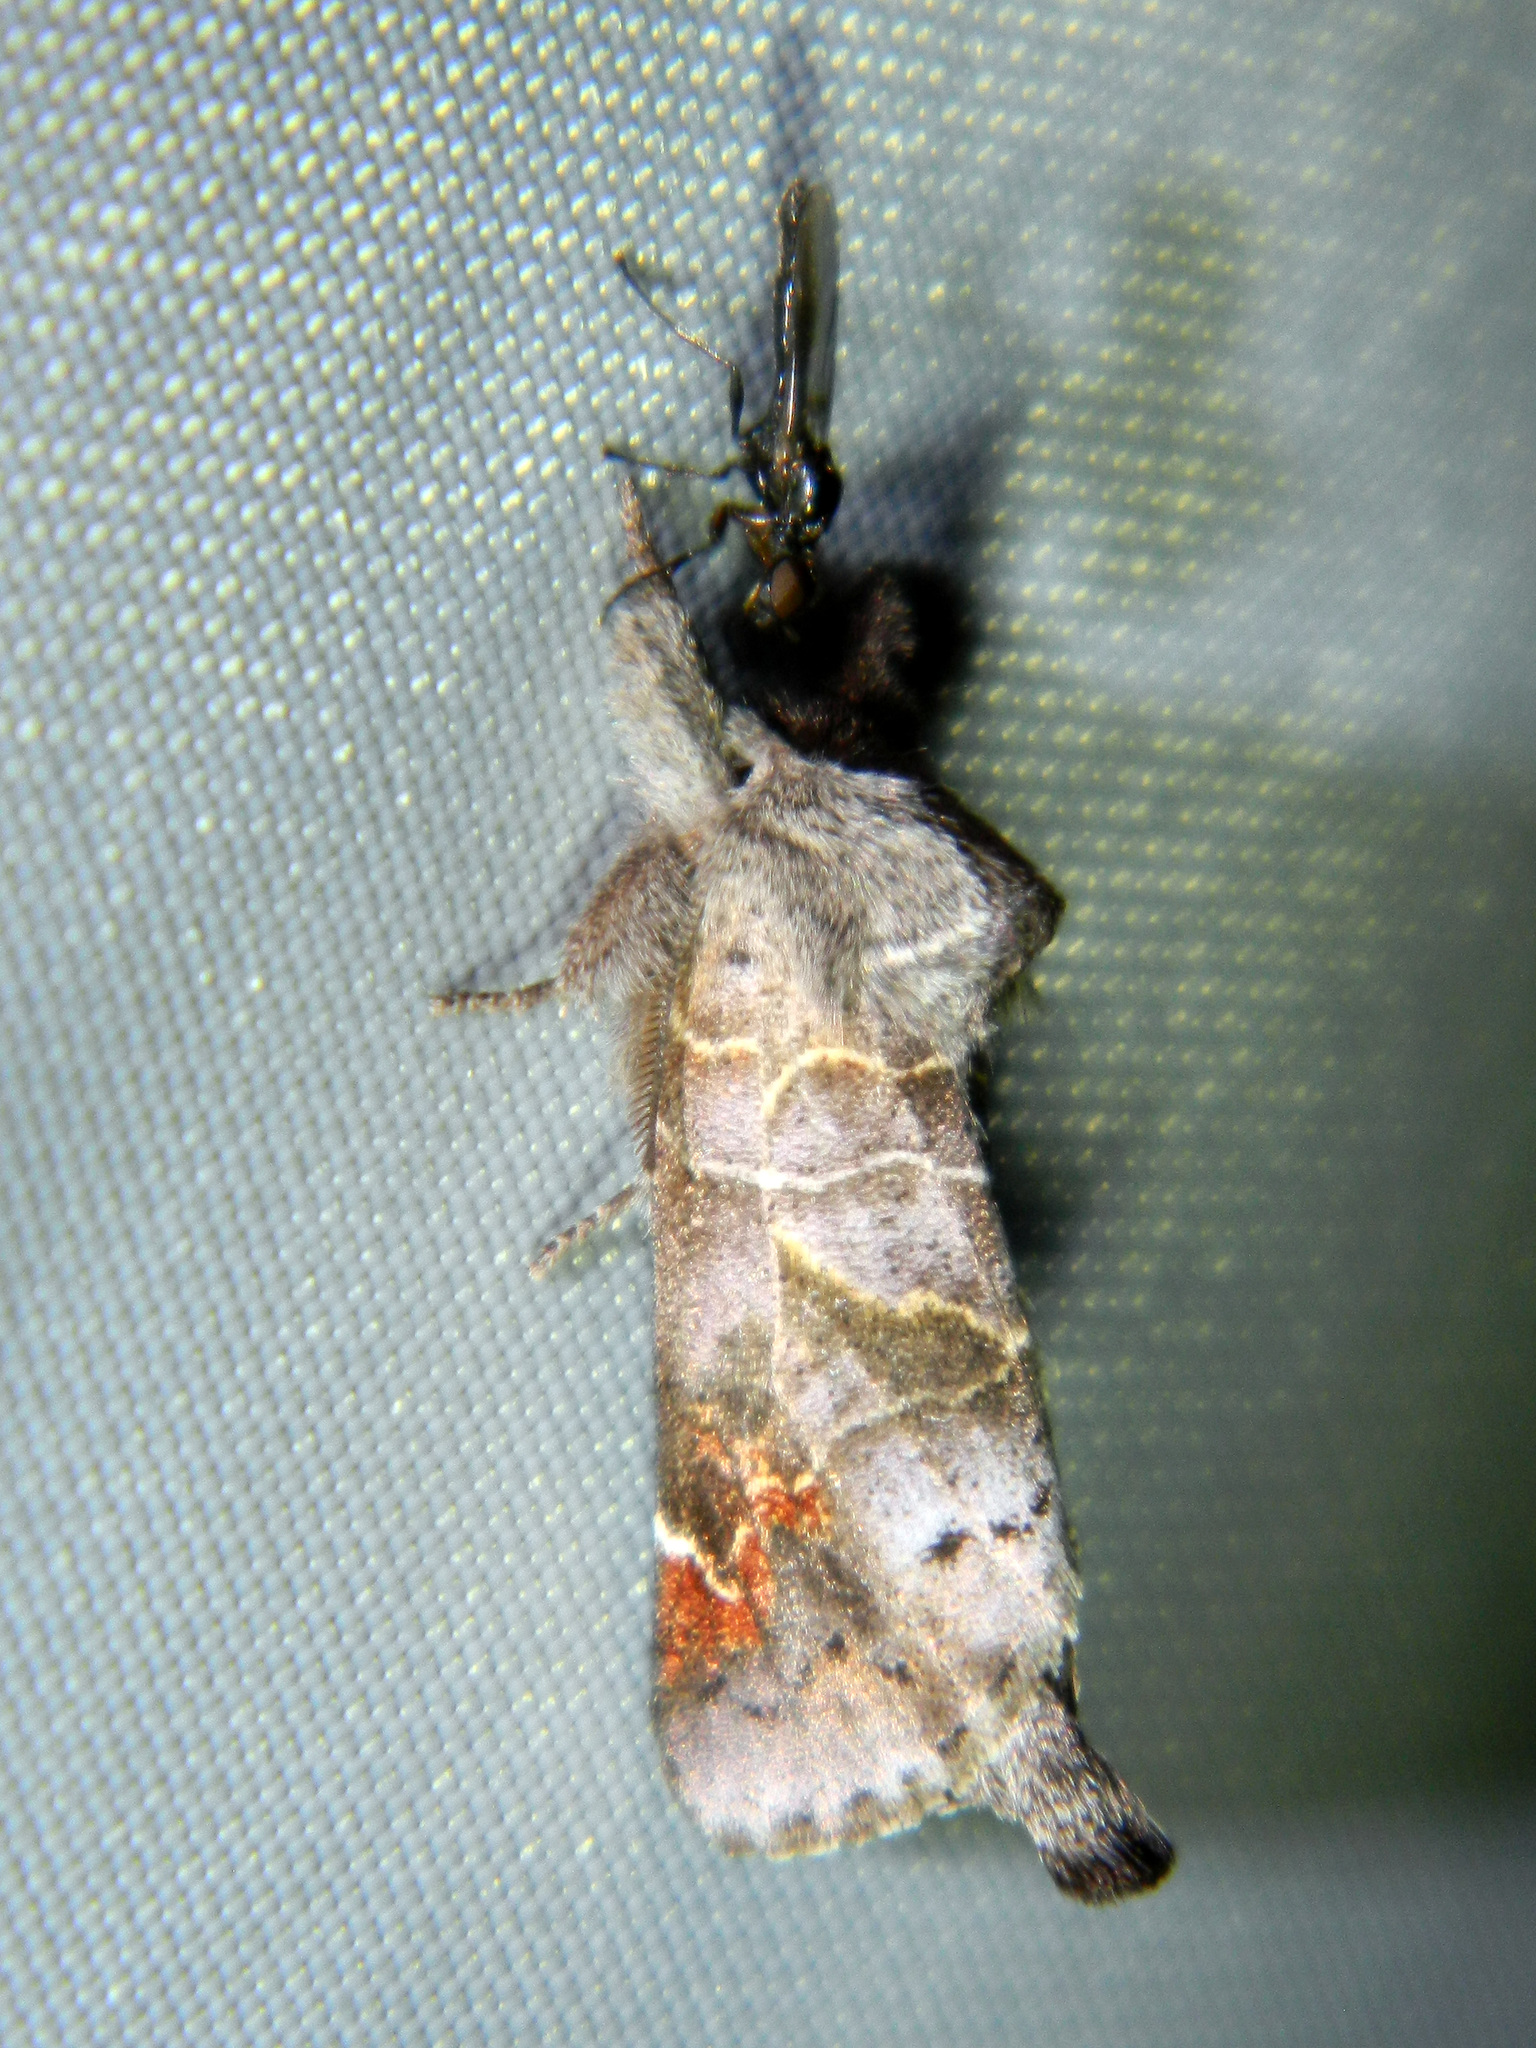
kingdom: Animalia
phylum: Arthropoda
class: Insecta
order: Lepidoptera
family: Notodontidae
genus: Clostera
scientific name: Clostera apicalis
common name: Apical prominent
